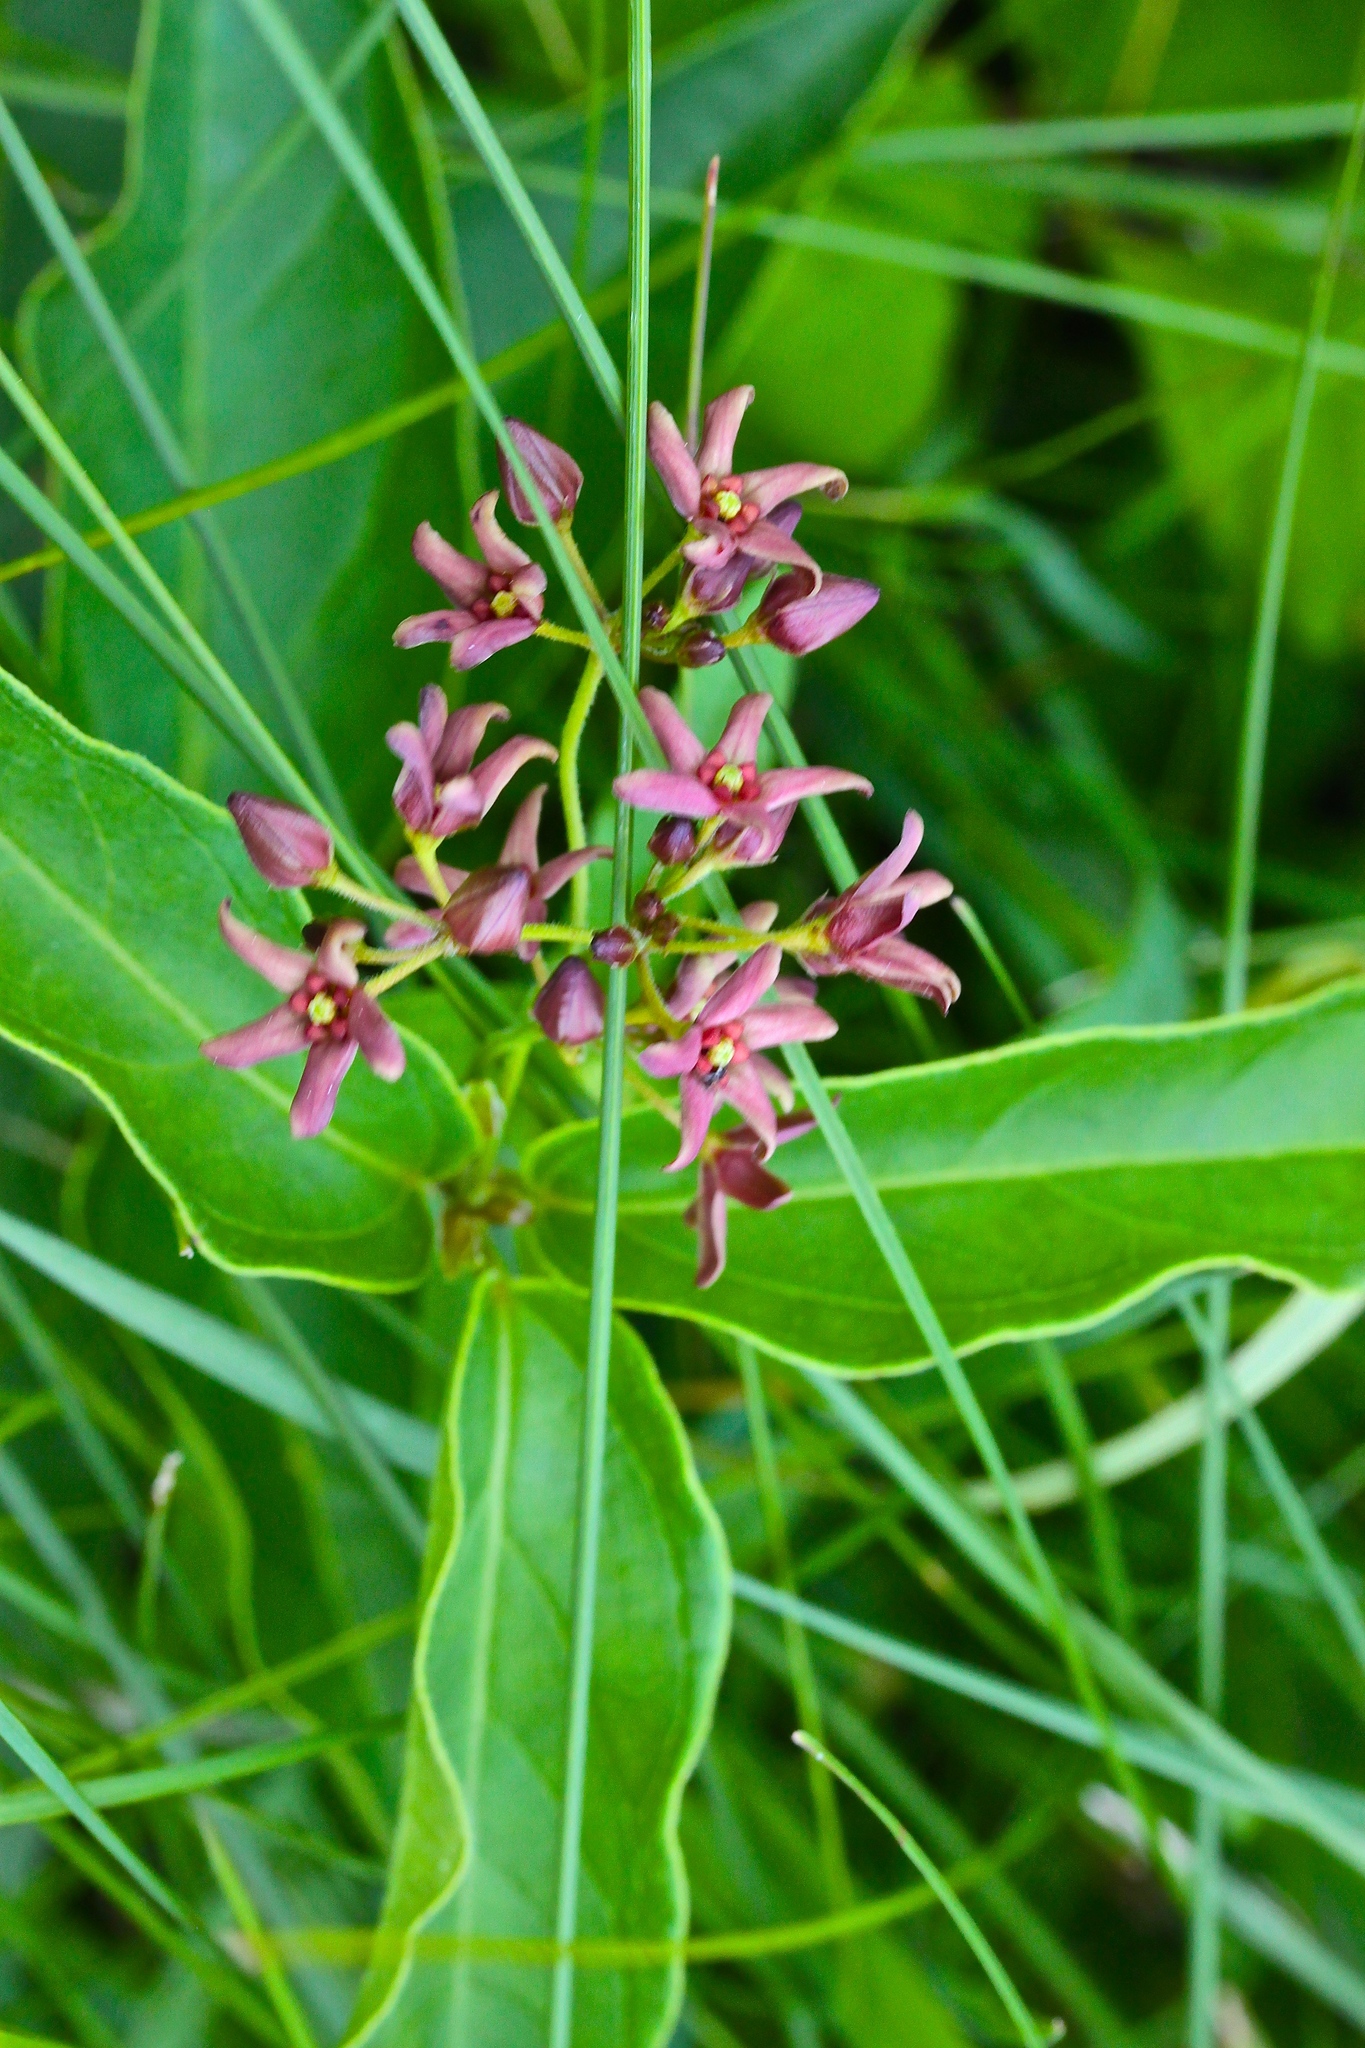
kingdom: Plantae
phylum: Tracheophyta
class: Magnoliopsida
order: Gentianales
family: Apocynaceae
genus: Vincetoxicum
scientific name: Vincetoxicum rossicum
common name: Dog-strangling vine
